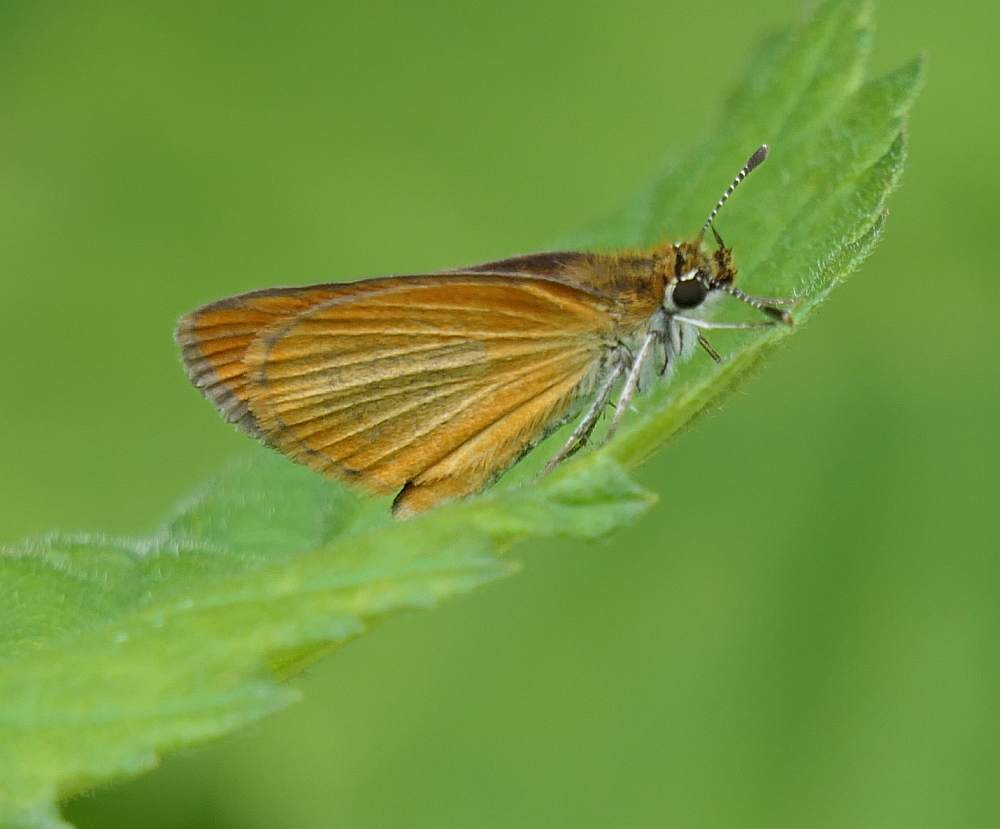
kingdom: Animalia
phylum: Arthropoda
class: Insecta
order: Lepidoptera
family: Hesperiidae
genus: Ancyloxypha
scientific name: Ancyloxypha numitor
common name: Least skipper
